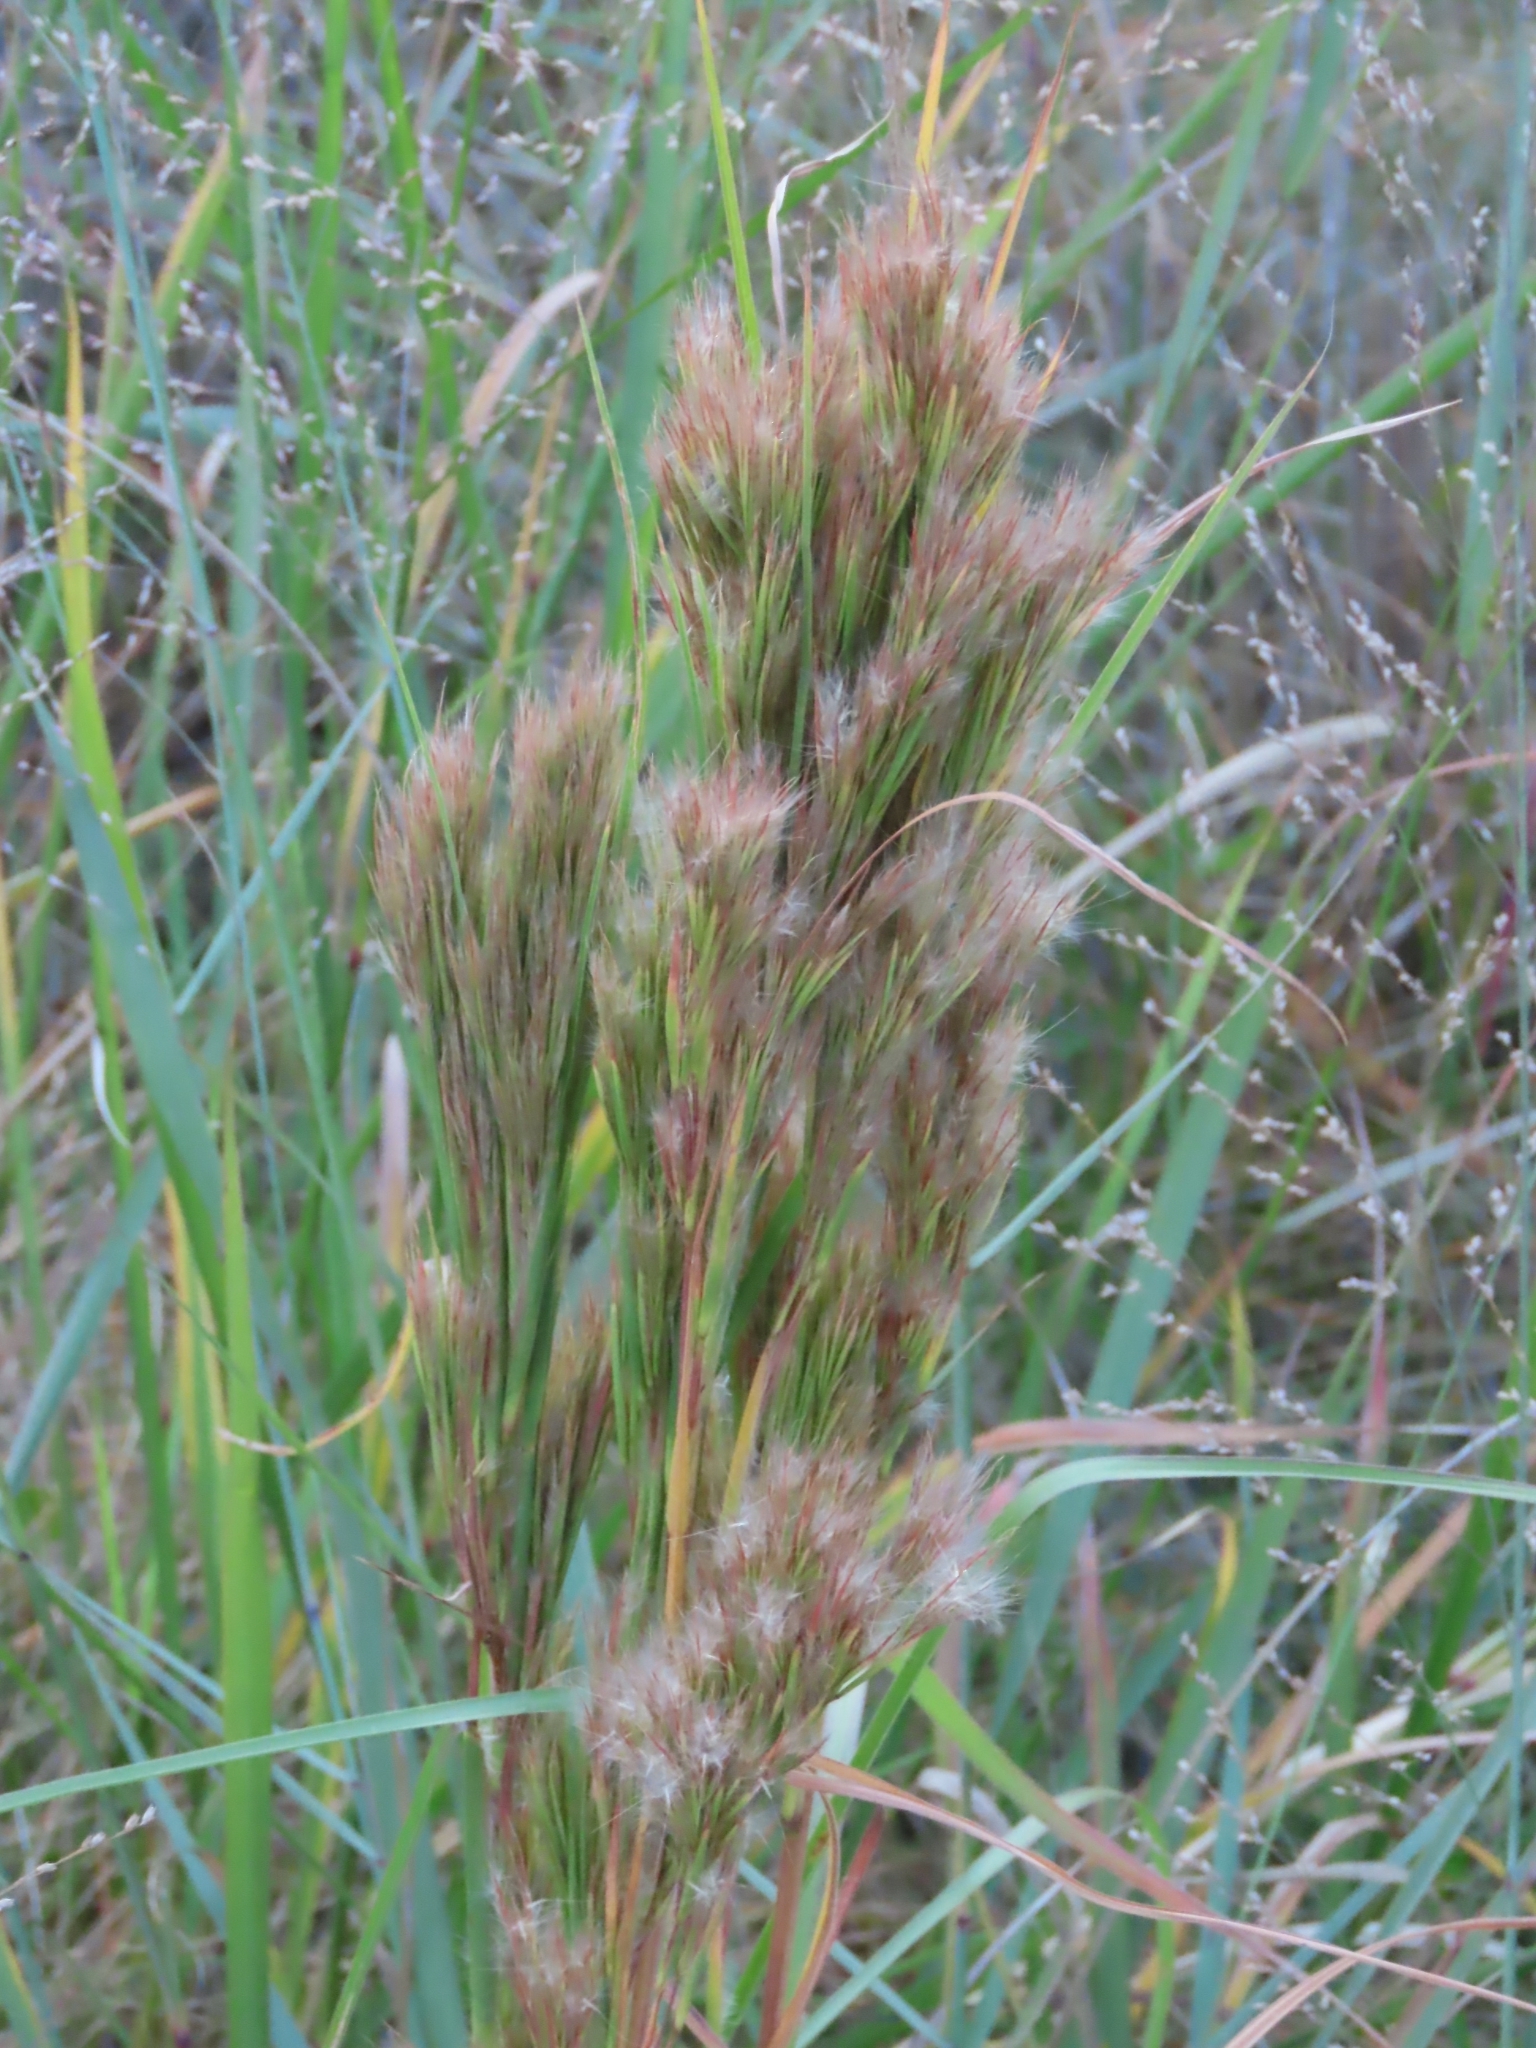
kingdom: Plantae
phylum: Tracheophyta
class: Liliopsida
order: Poales
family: Poaceae
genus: Andropogon
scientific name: Andropogon tenuispatheus
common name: Bushy bluestem
